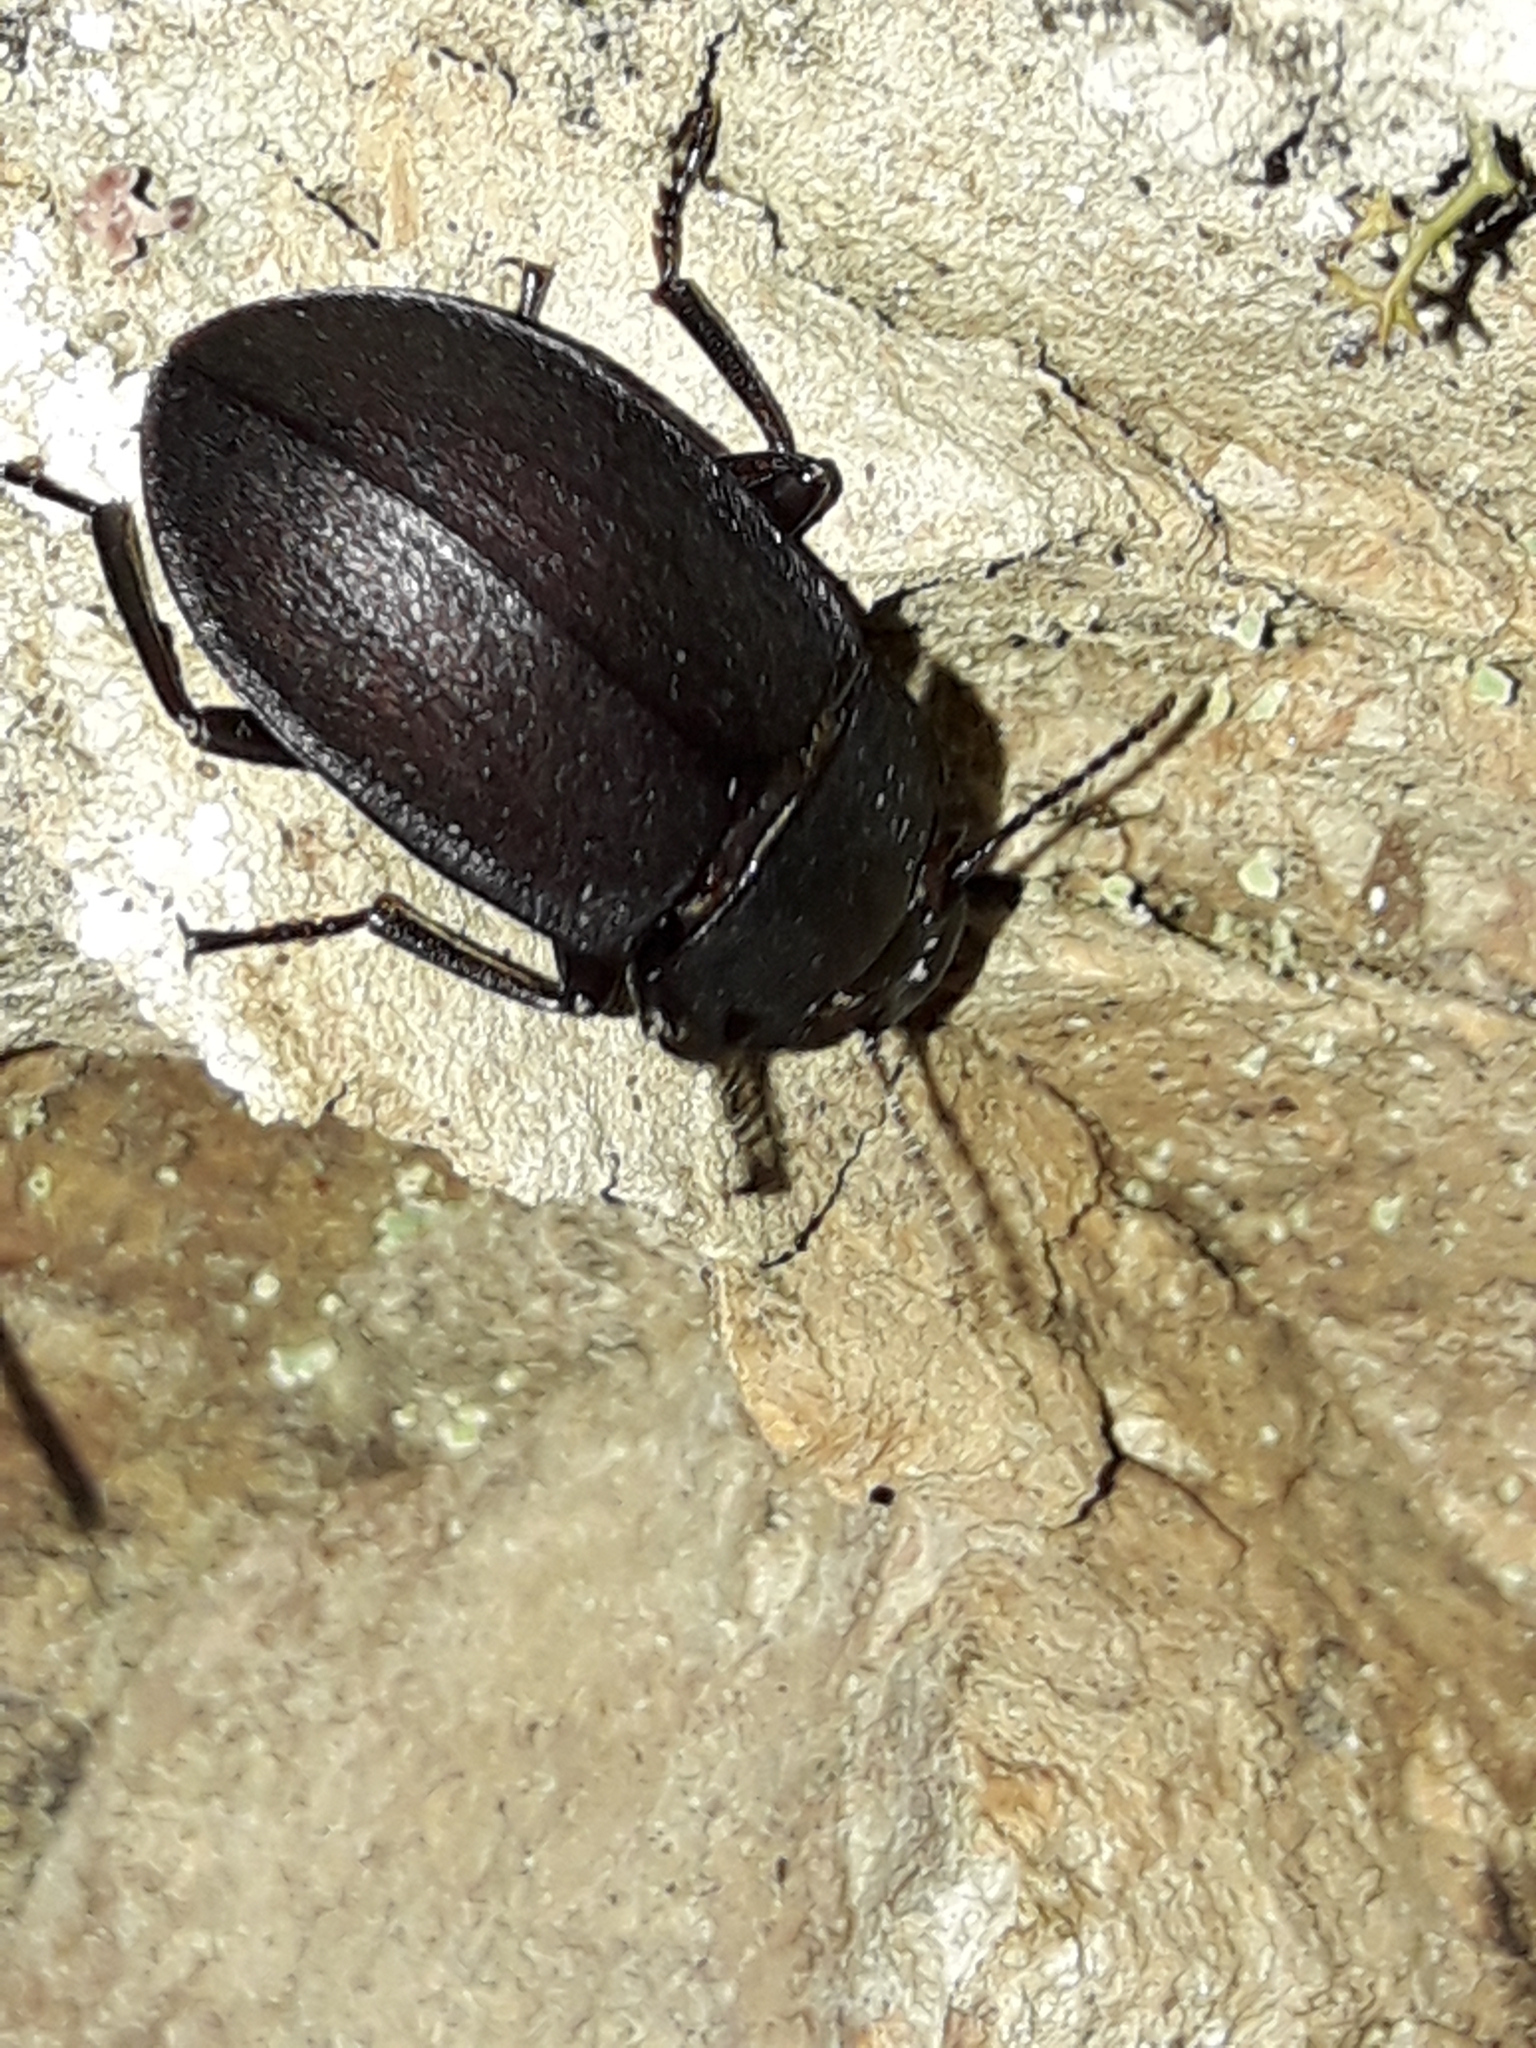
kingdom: Animalia
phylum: Arthropoda
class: Insecta
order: Coleoptera
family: Tenebrionidae
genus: Mimopeus
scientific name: Mimopeus
